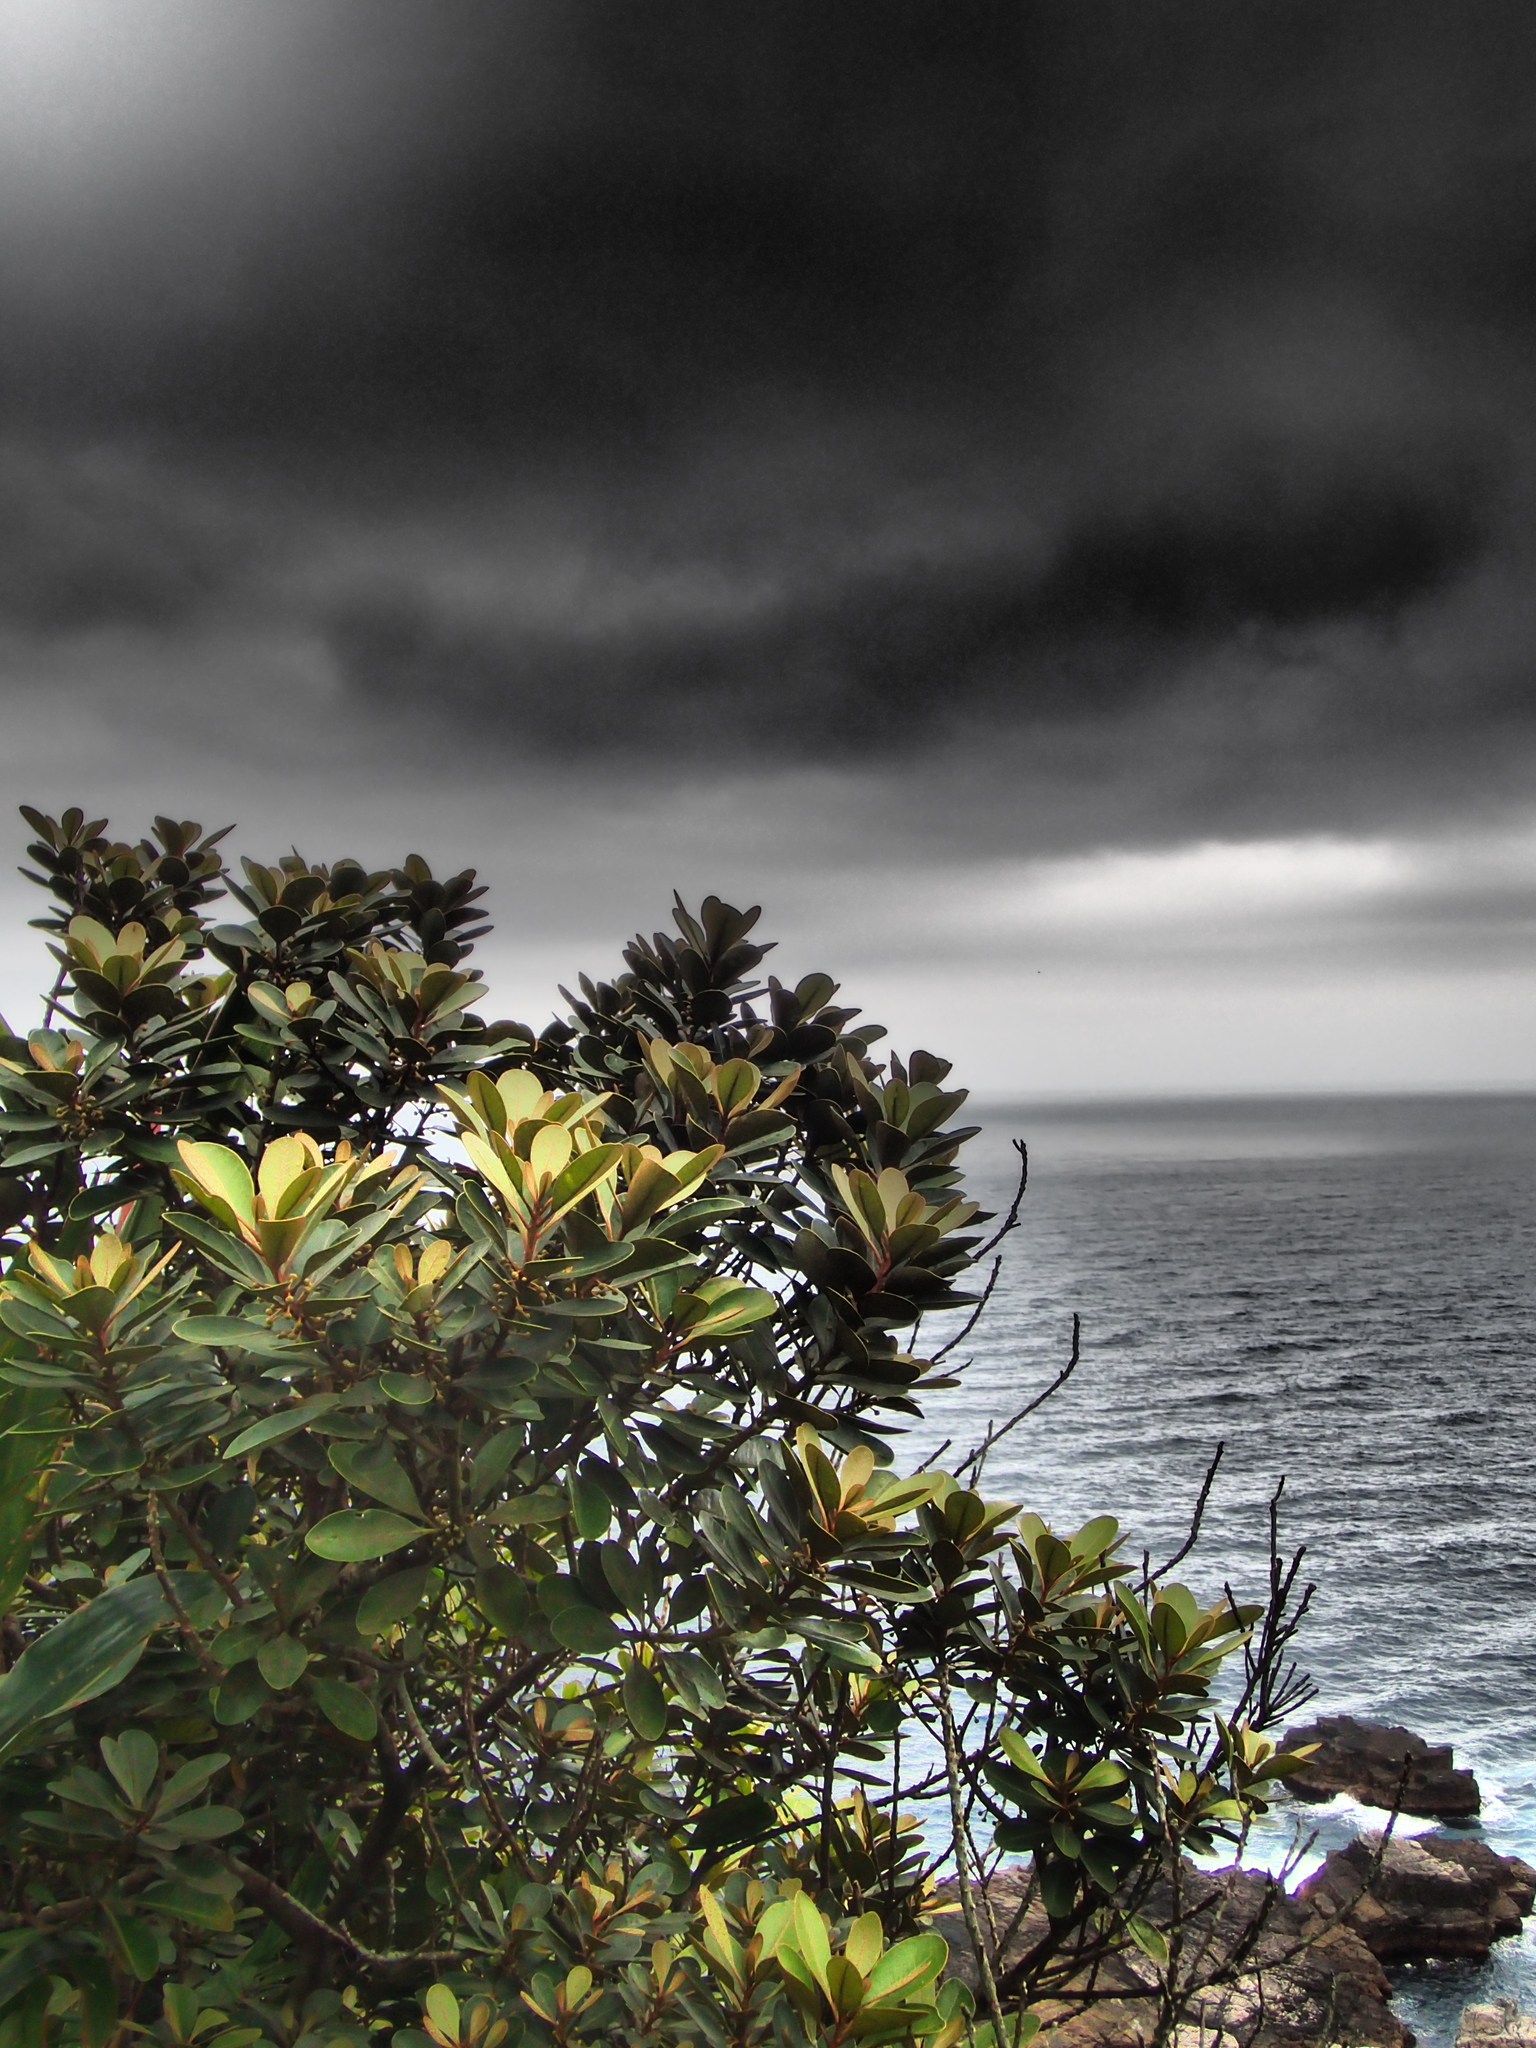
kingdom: Plantae
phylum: Tracheophyta
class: Magnoliopsida
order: Ericales
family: Sapotaceae
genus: Planchonella
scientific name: Planchonella obovata
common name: Black-ash
